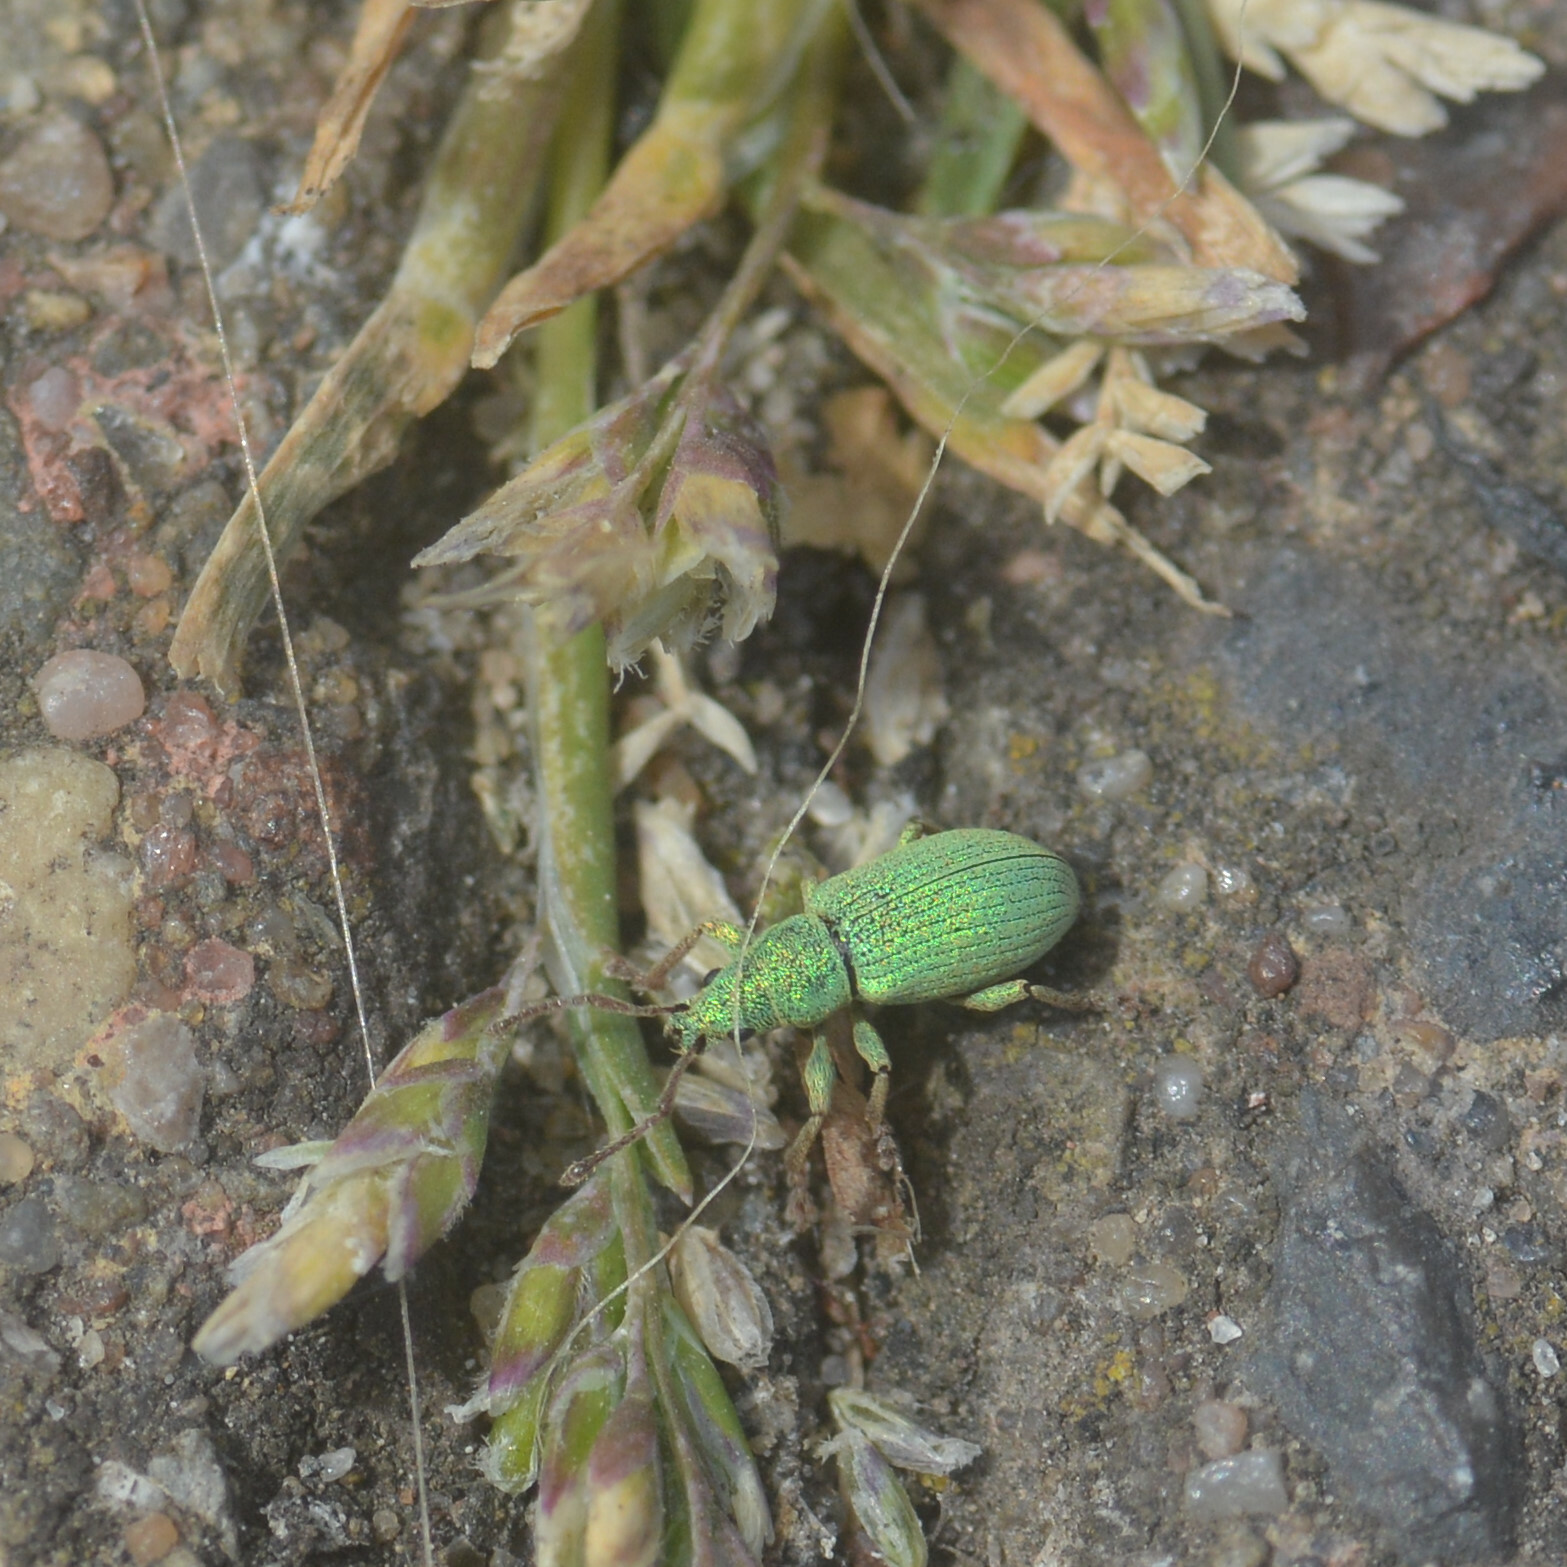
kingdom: Animalia
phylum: Arthropoda
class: Insecta
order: Coleoptera
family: Curculionidae
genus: Phyllobius
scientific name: Phyllobius virideaeris
